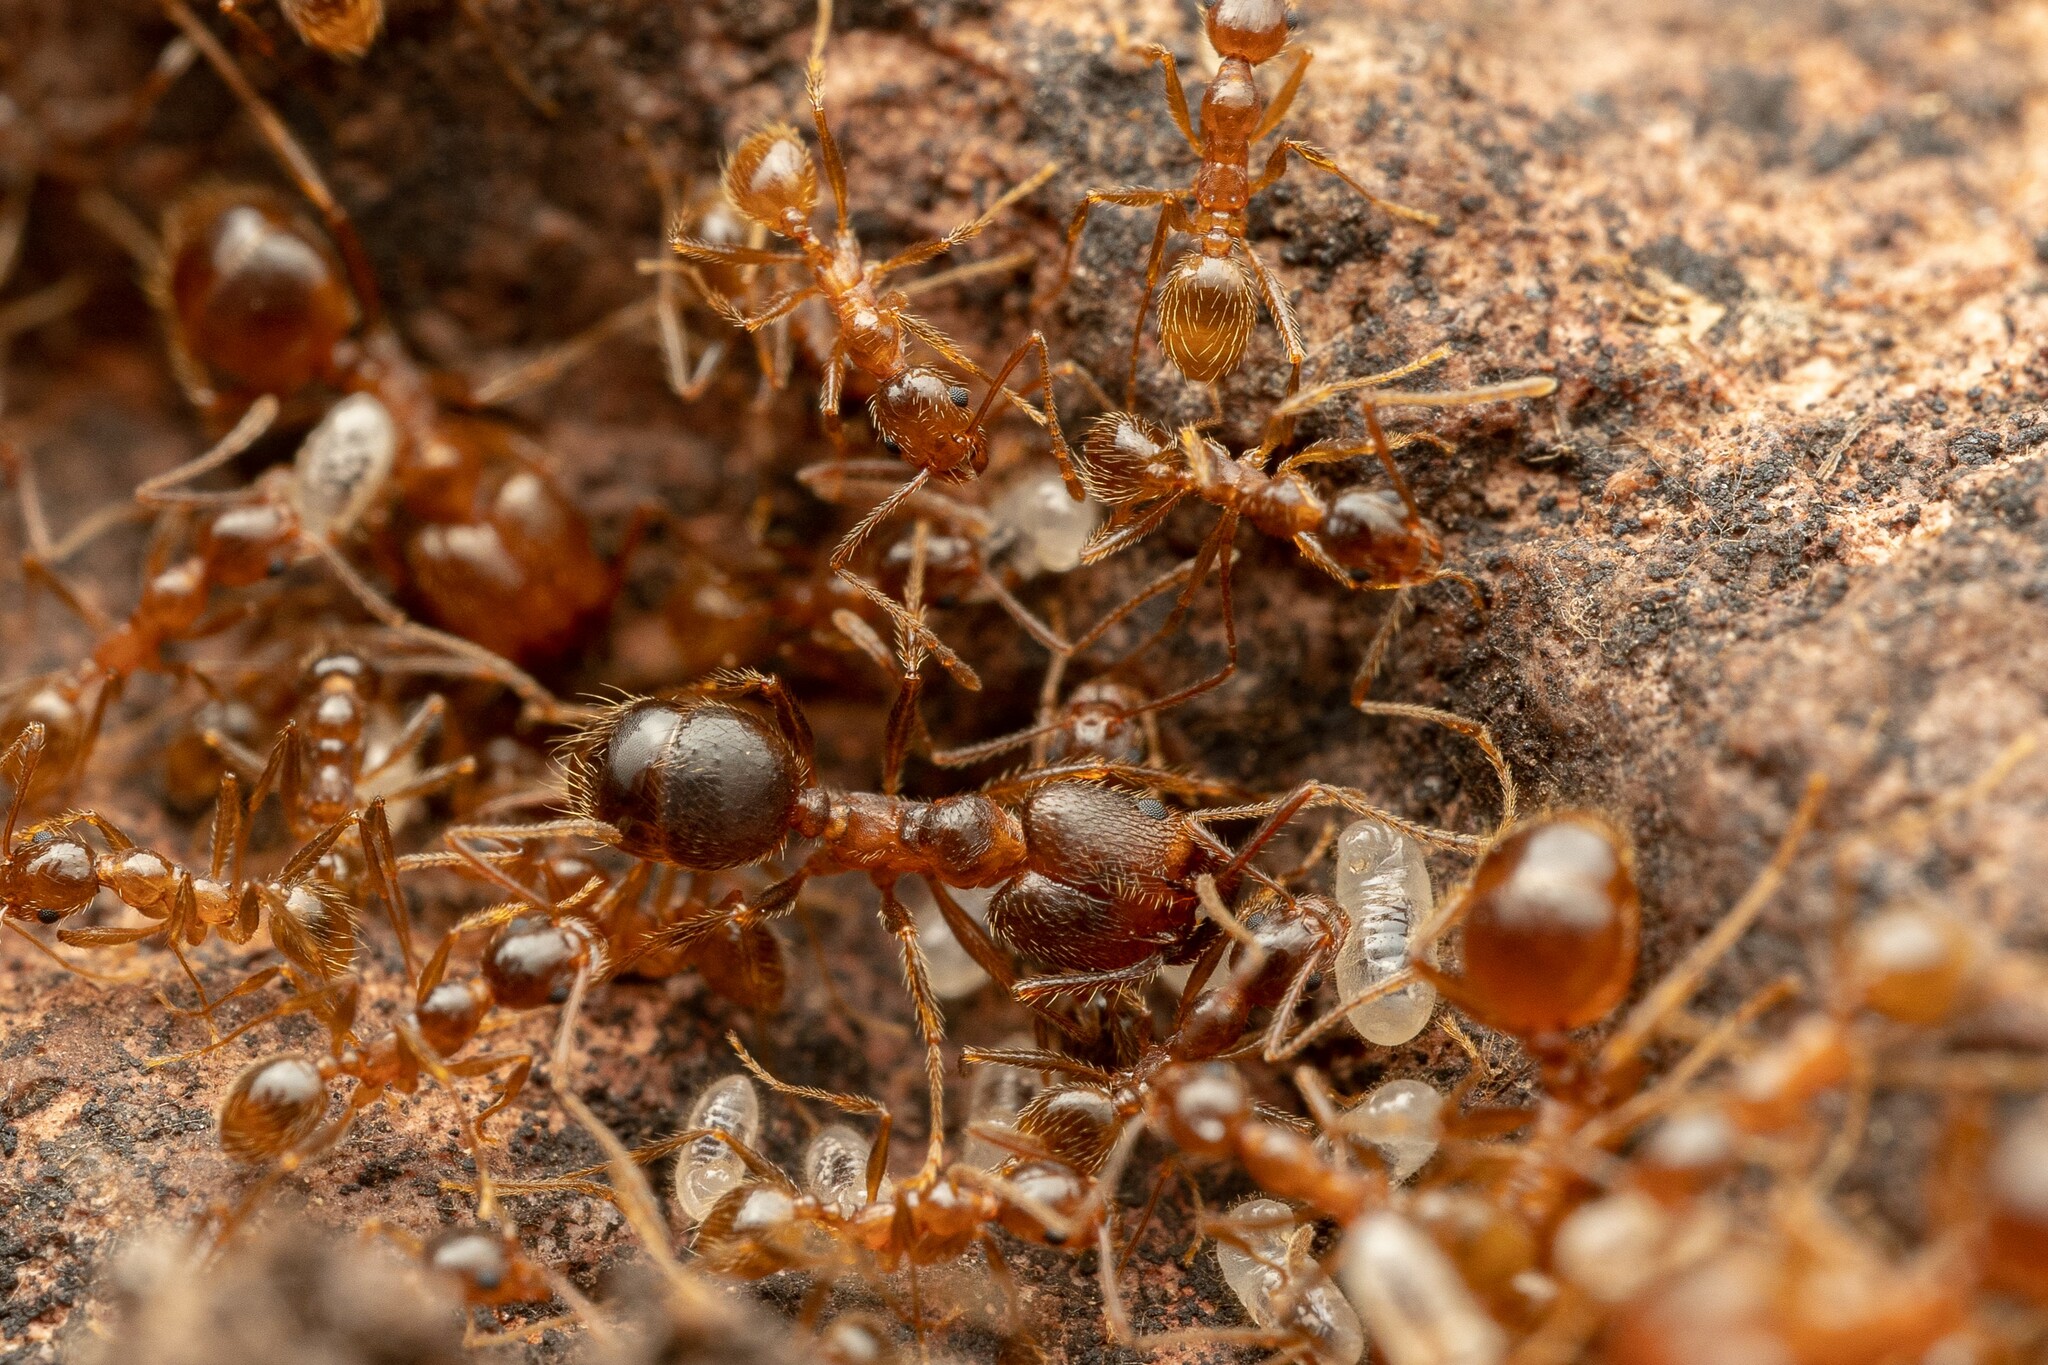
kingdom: Animalia
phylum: Arthropoda
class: Insecta
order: Hymenoptera
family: Formicidae
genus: Pheidole
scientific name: Pheidole hyatti
